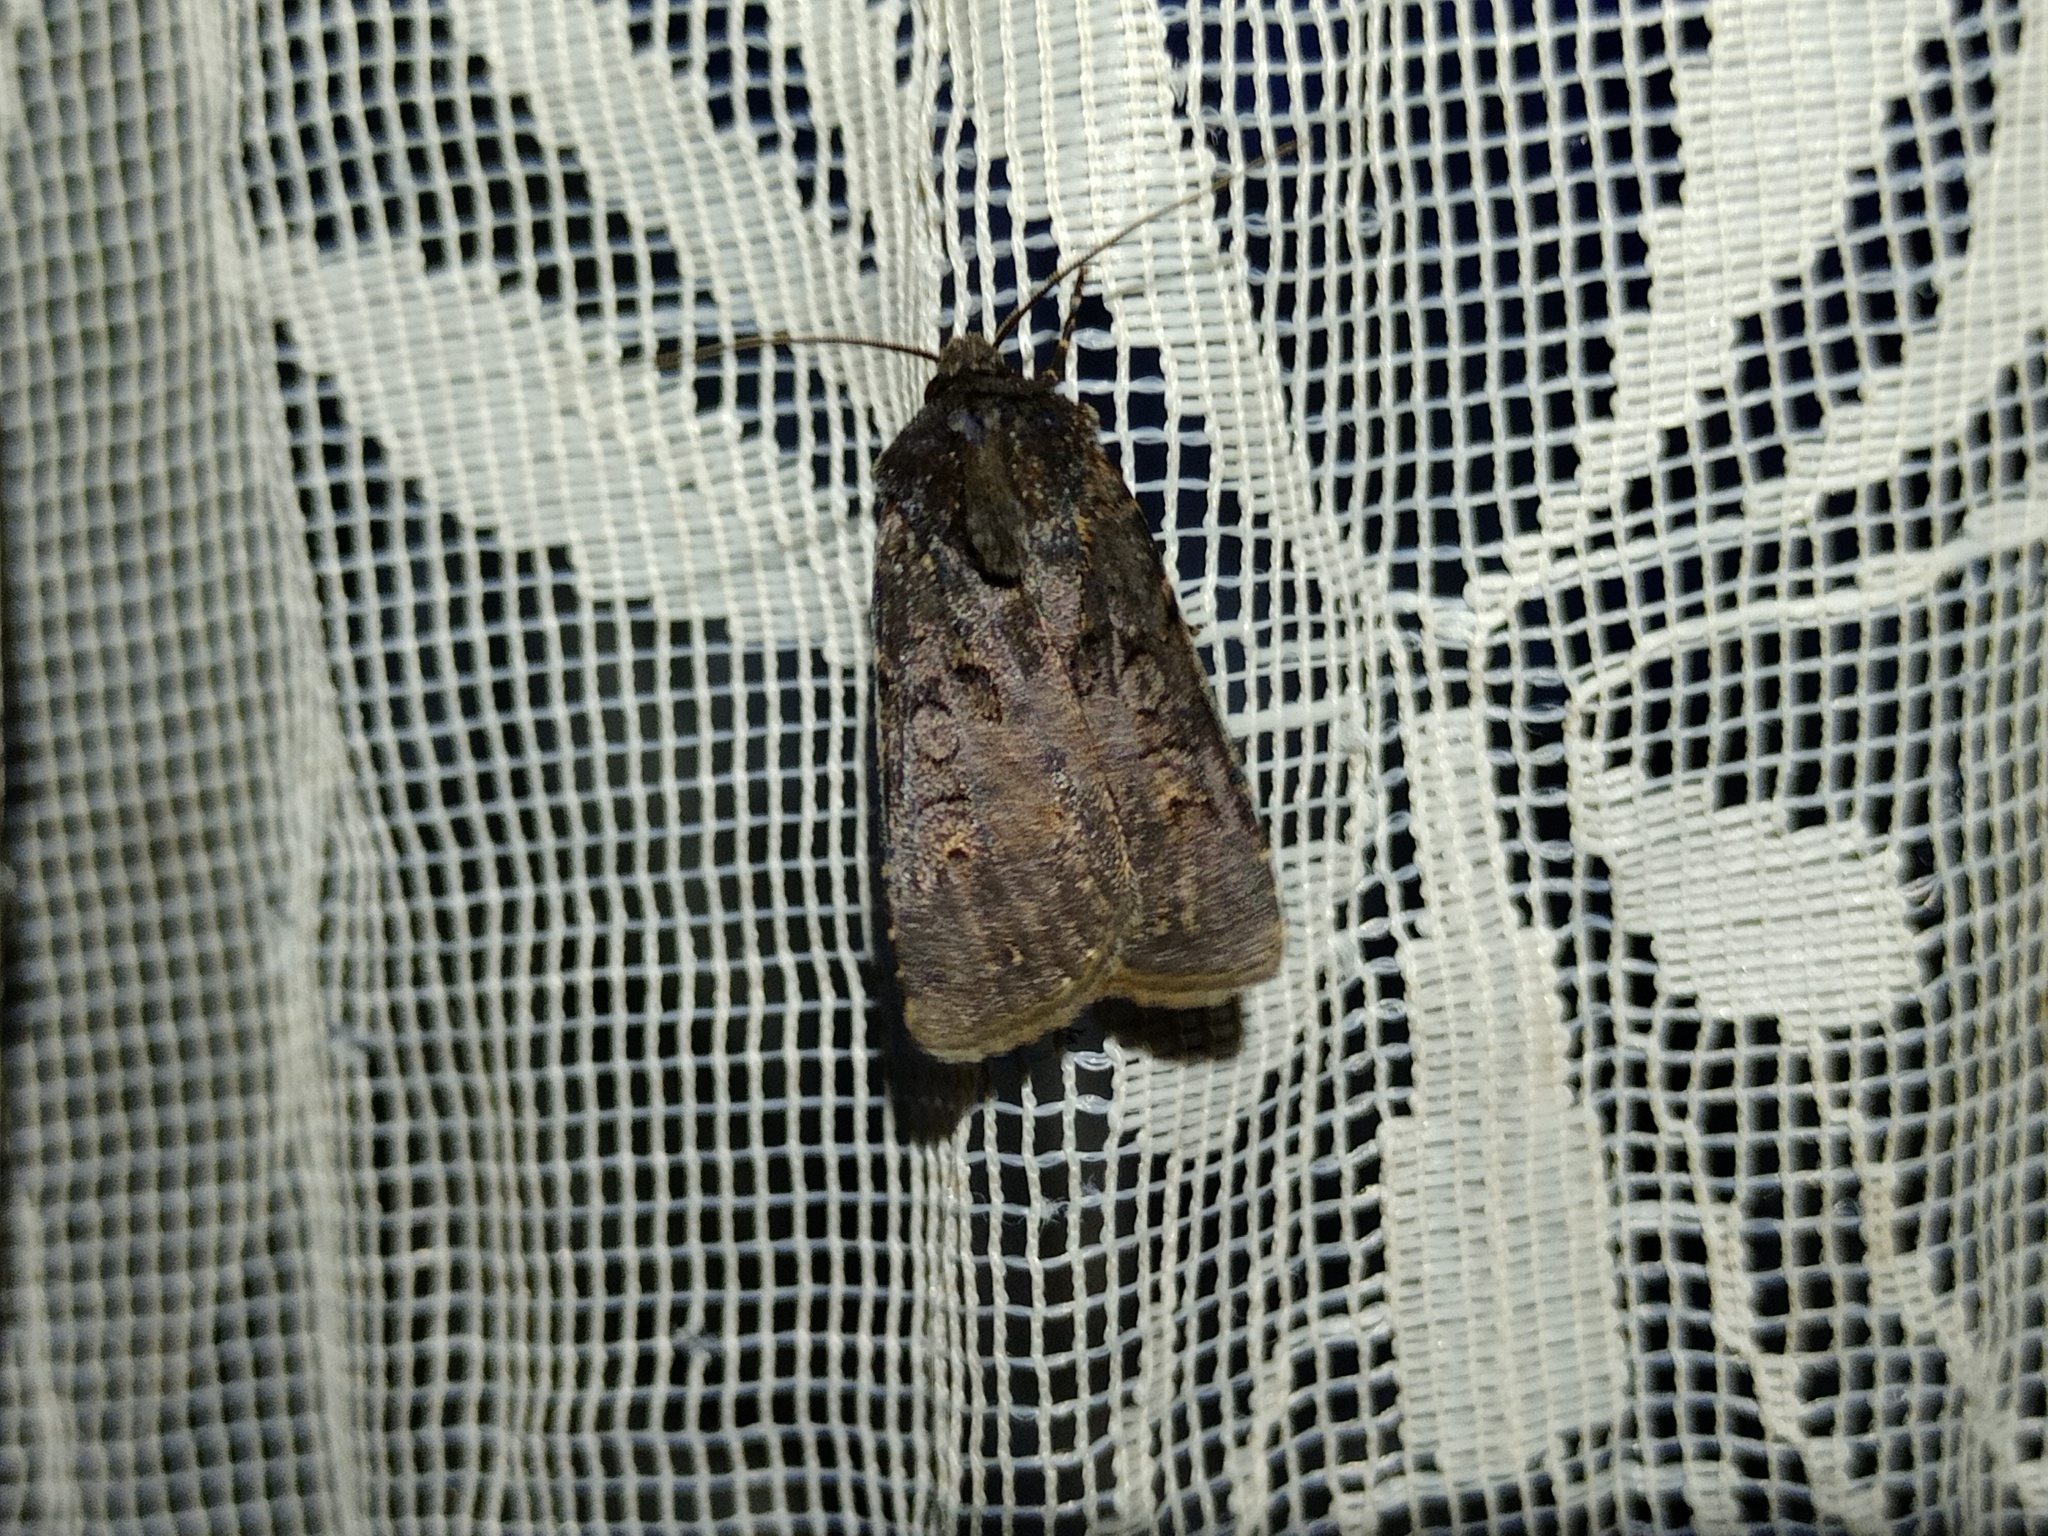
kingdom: Animalia
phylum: Arthropoda
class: Insecta
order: Lepidoptera
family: Noctuidae
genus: Euxoa
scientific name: Euxoa nigricans
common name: Garden dart
